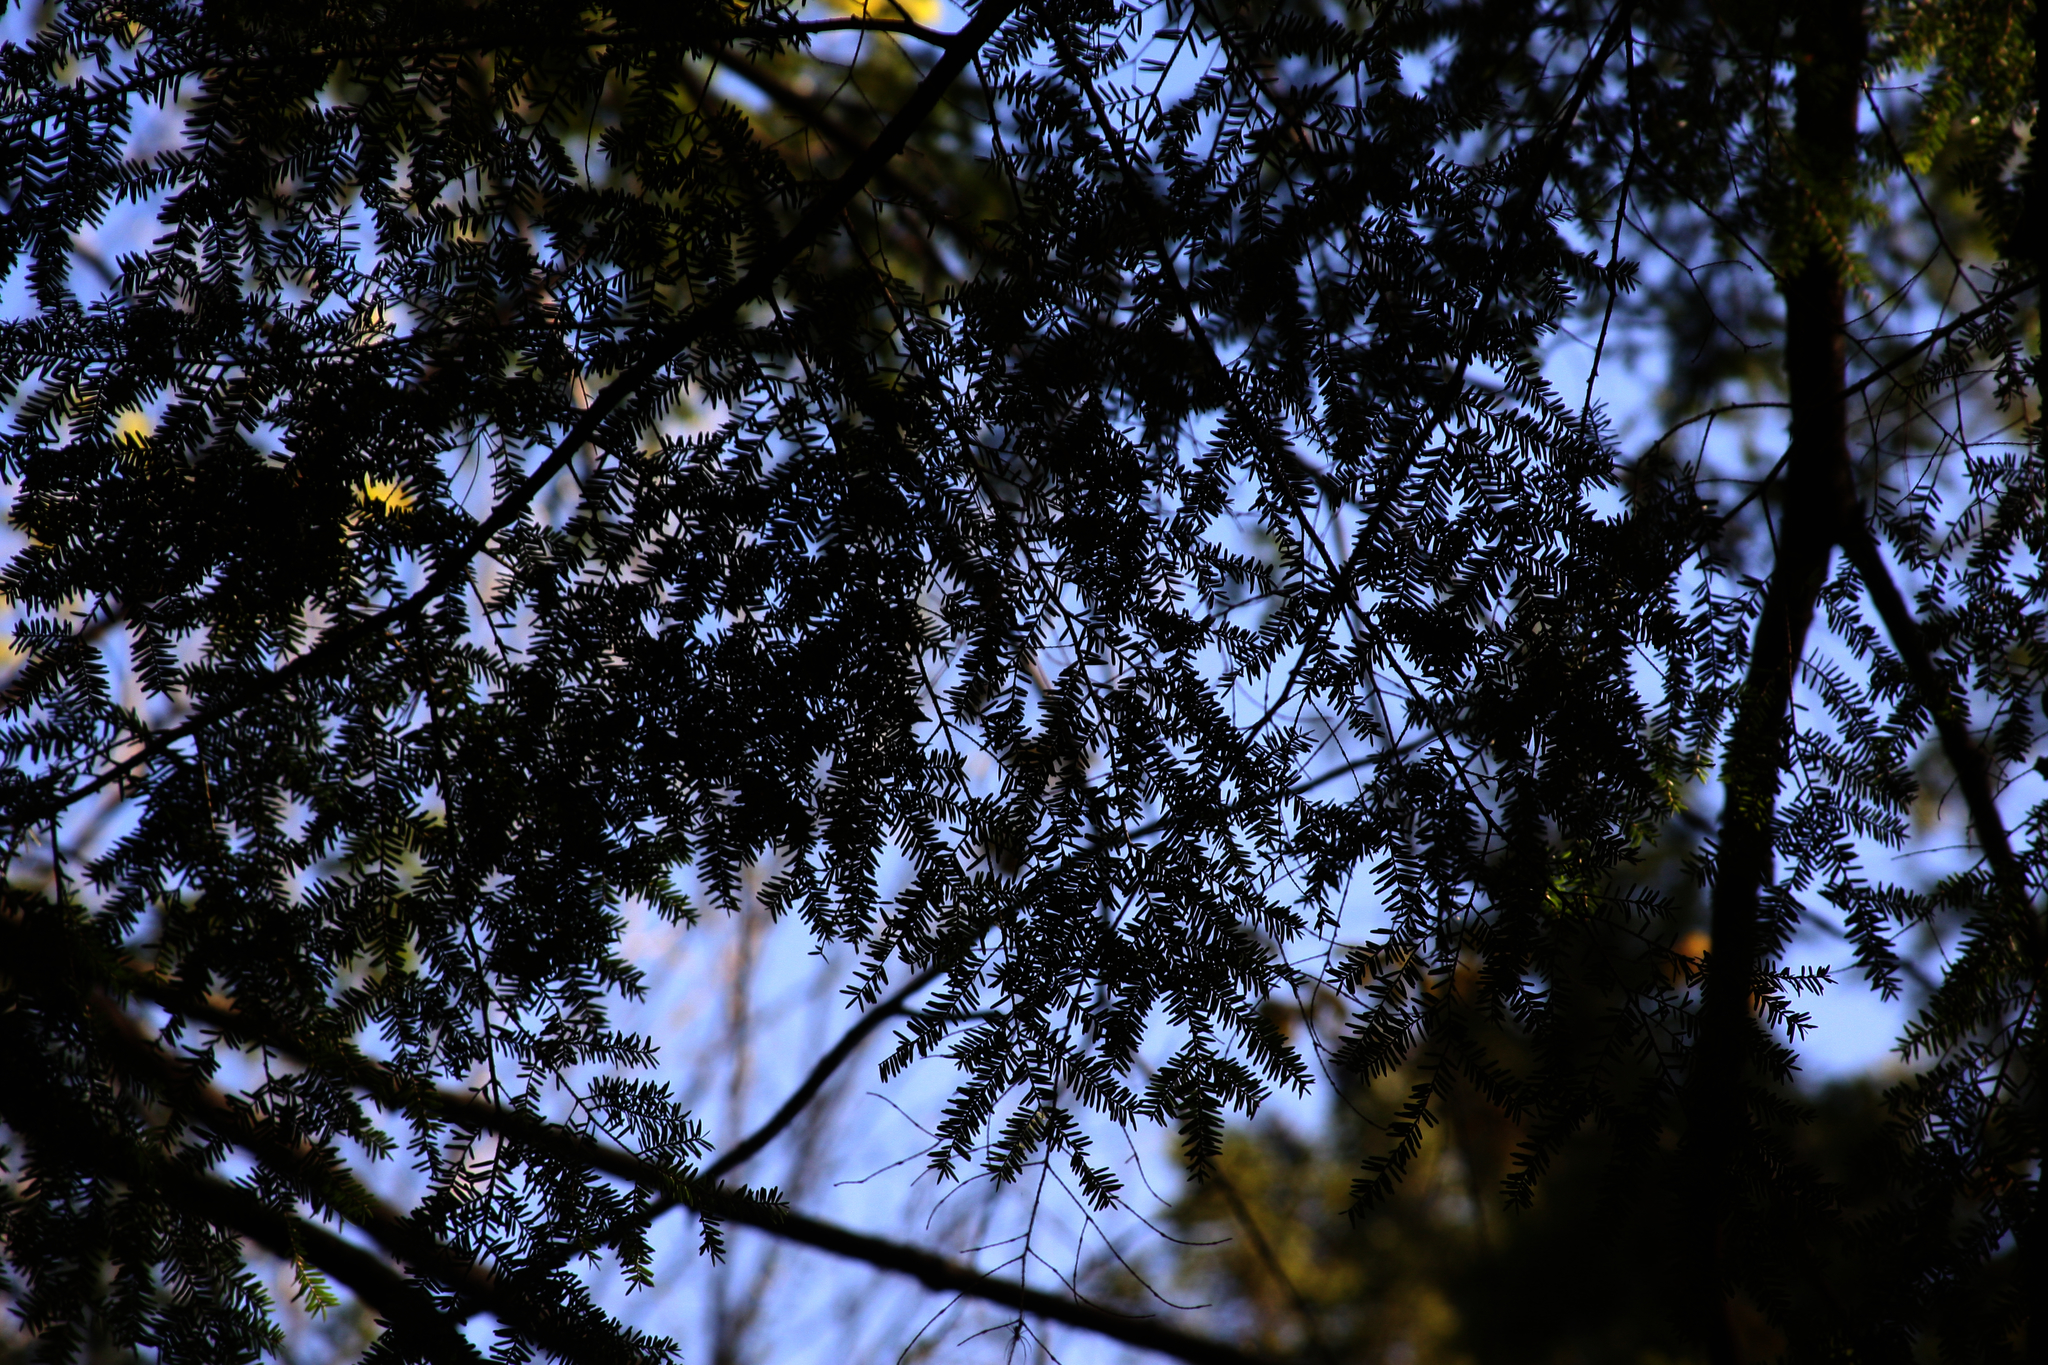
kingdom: Plantae
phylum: Tracheophyta
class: Pinopsida
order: Pinales
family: Pinaceae
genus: Tsuga
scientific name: Tsuga canadensis
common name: Eastern hemlock
